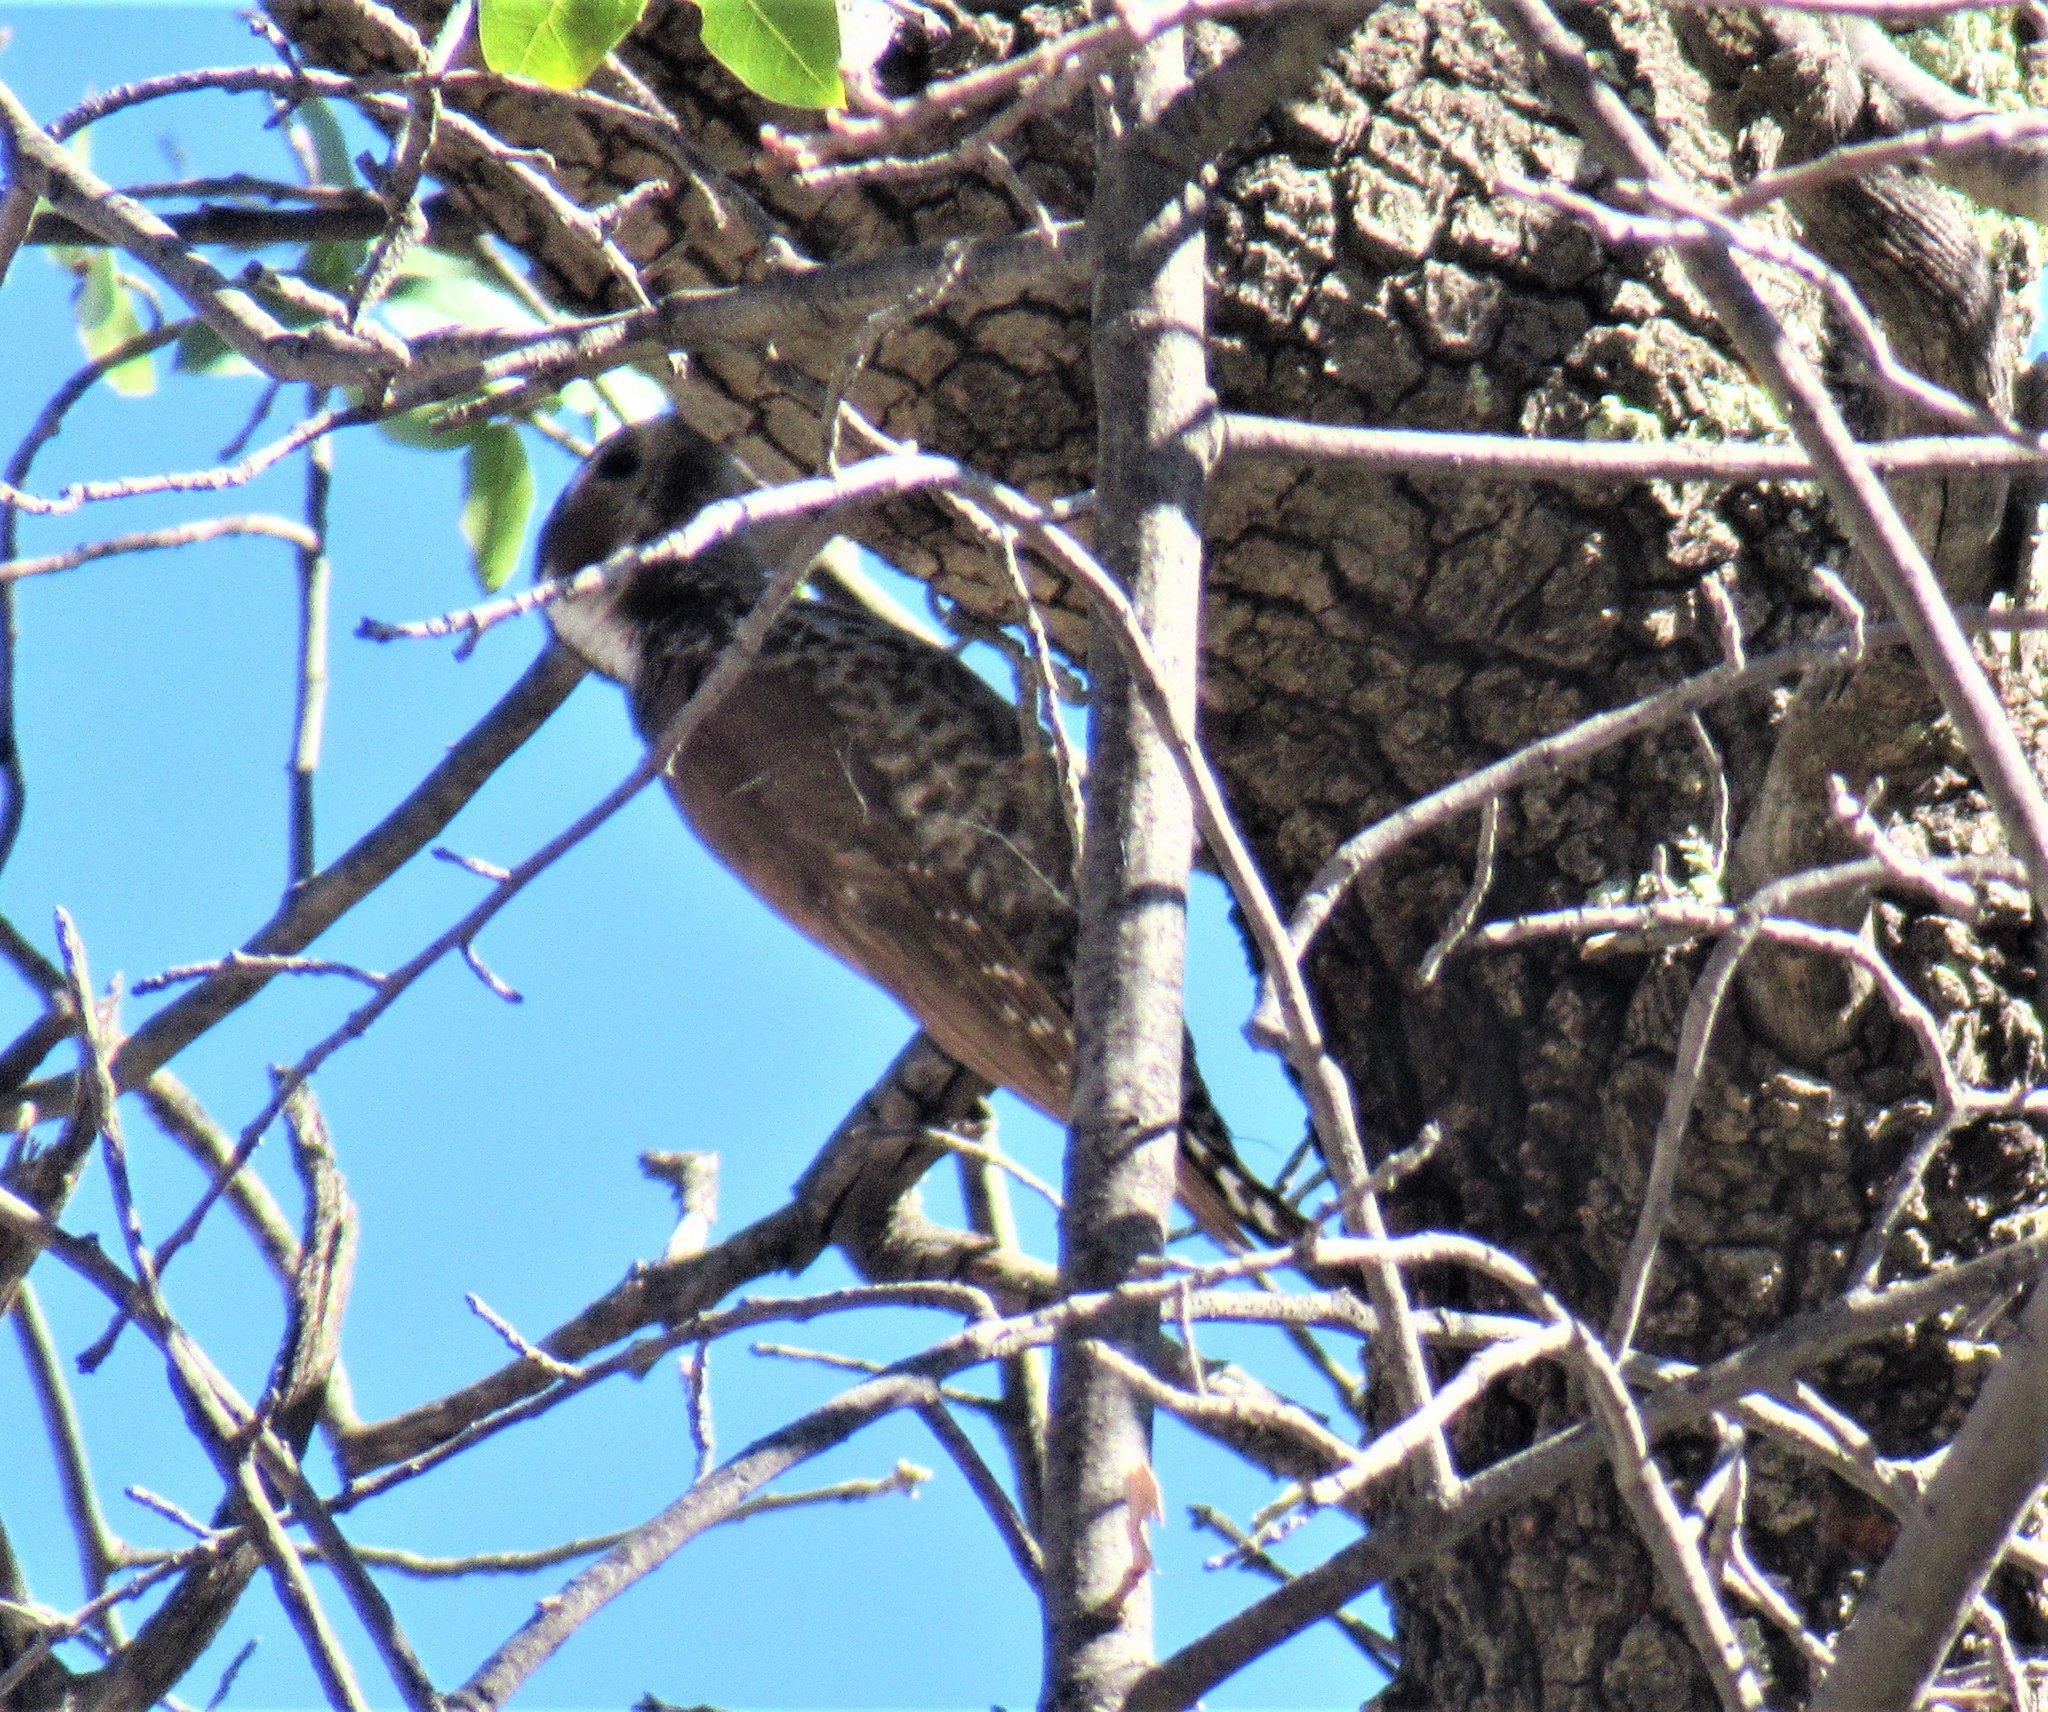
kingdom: Animalia
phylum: Chordata
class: Aves
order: Piciformes
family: Picidae
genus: Leuconotopicus
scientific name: Leuconotopicus arizonae
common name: Arizona woodpecker
